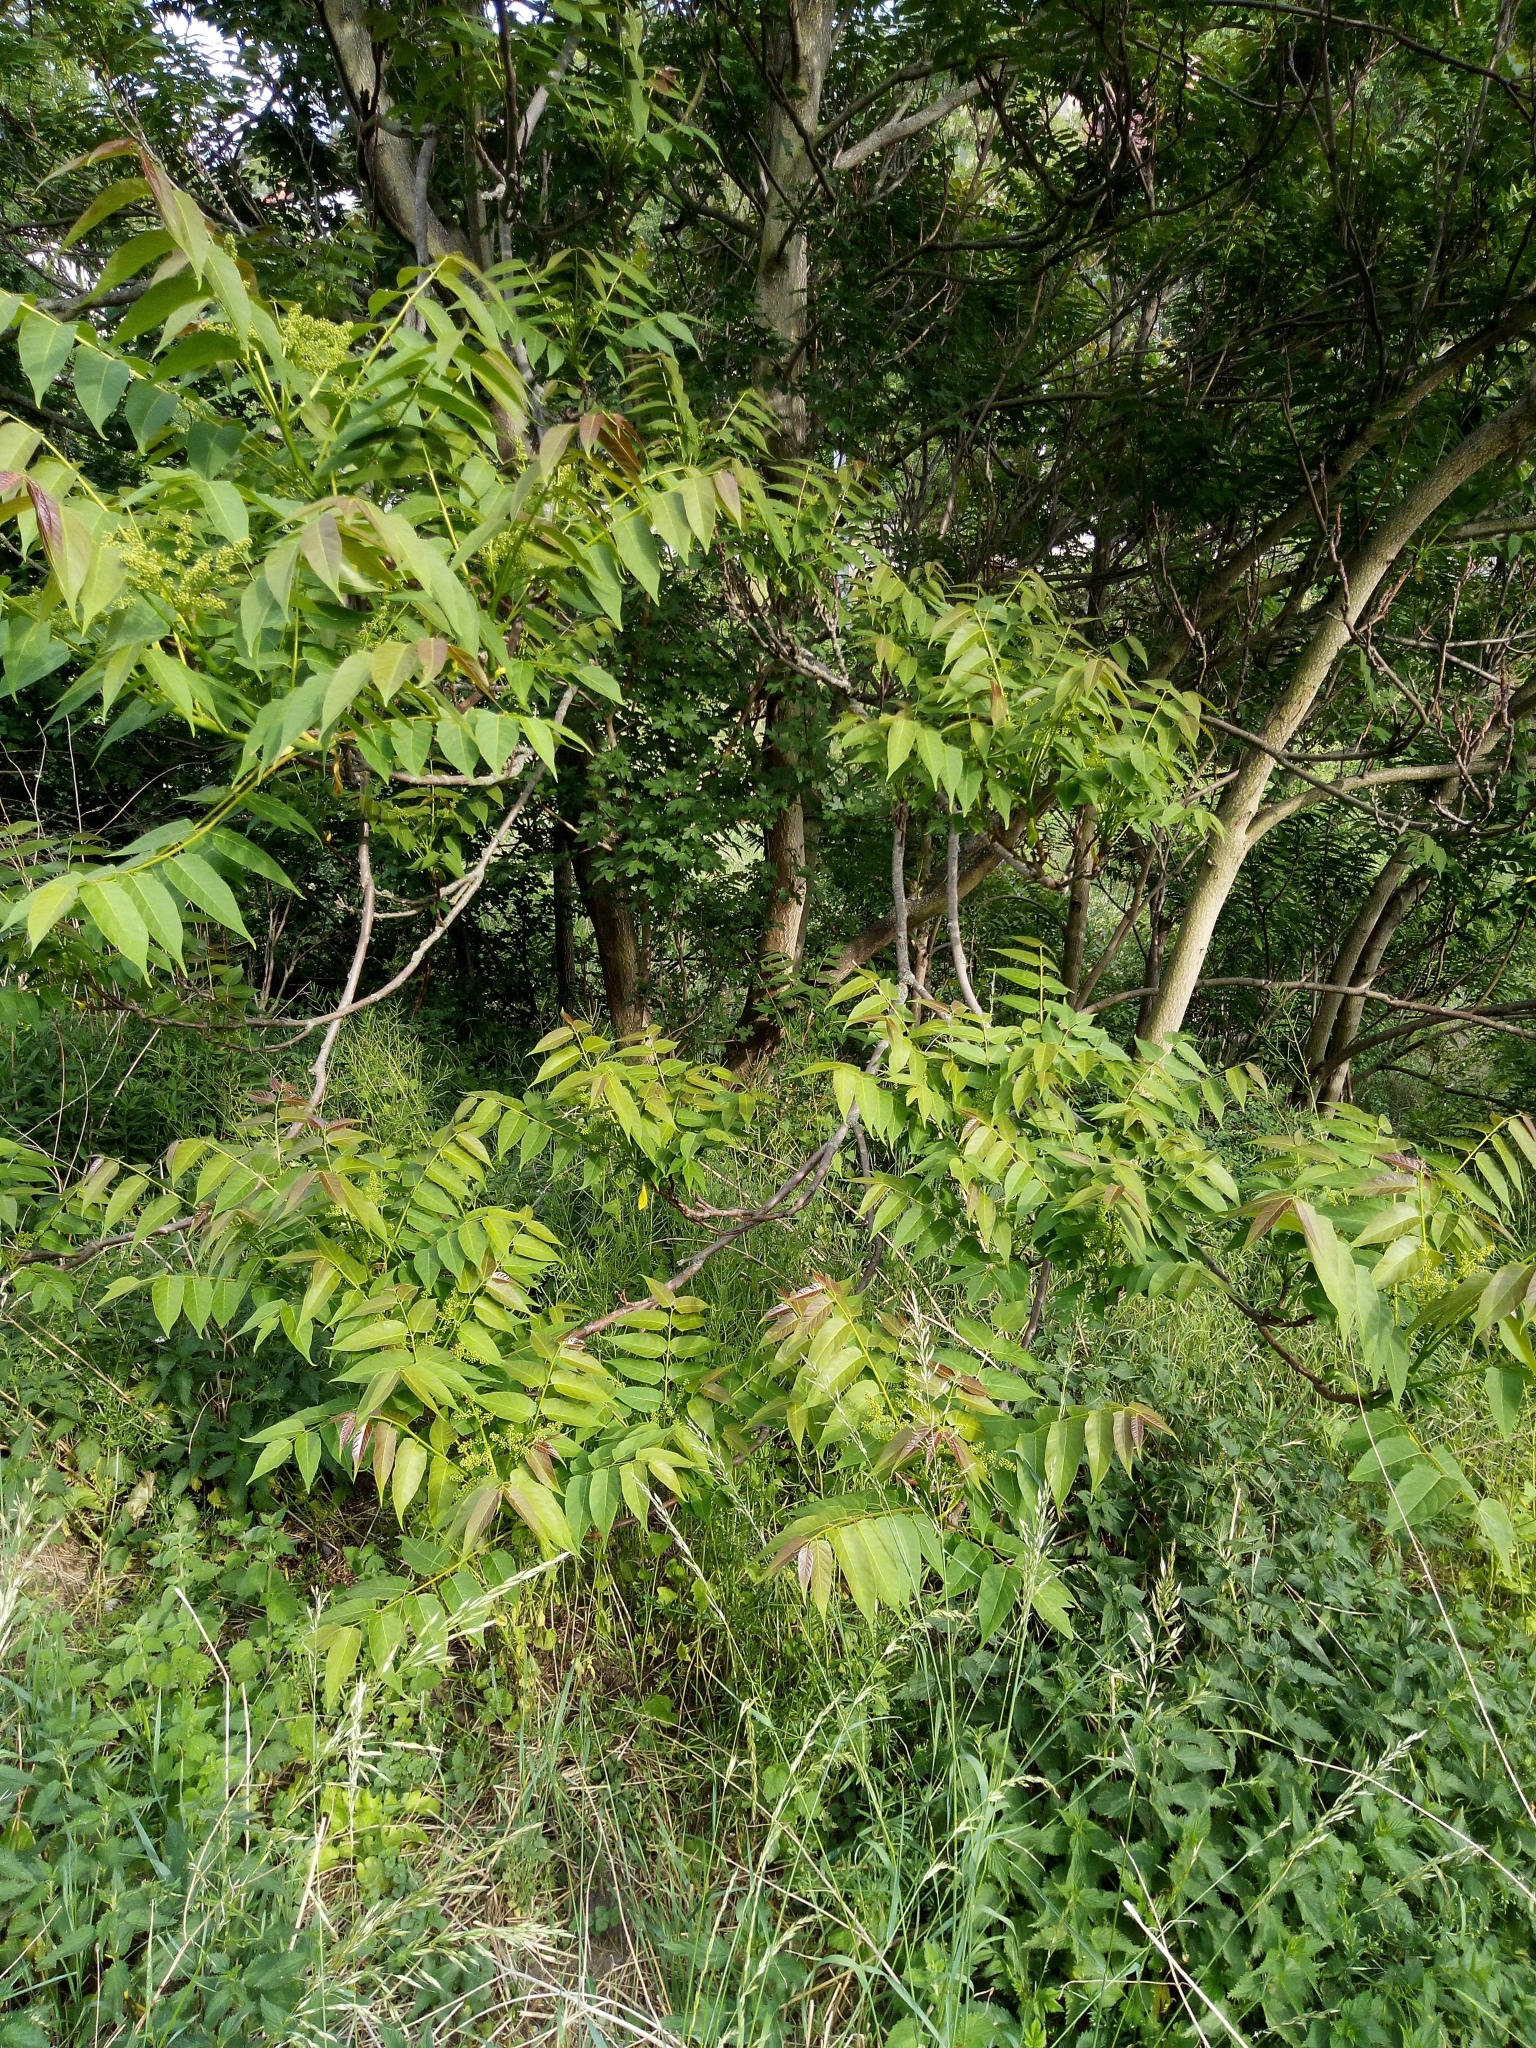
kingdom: Plantae
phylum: Tracheophyta
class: Magnoliopsida
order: Sapindales
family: Simaroubaceae
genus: Ailanthus
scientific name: Ailanthus altissima
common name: Tree-of-heaven
